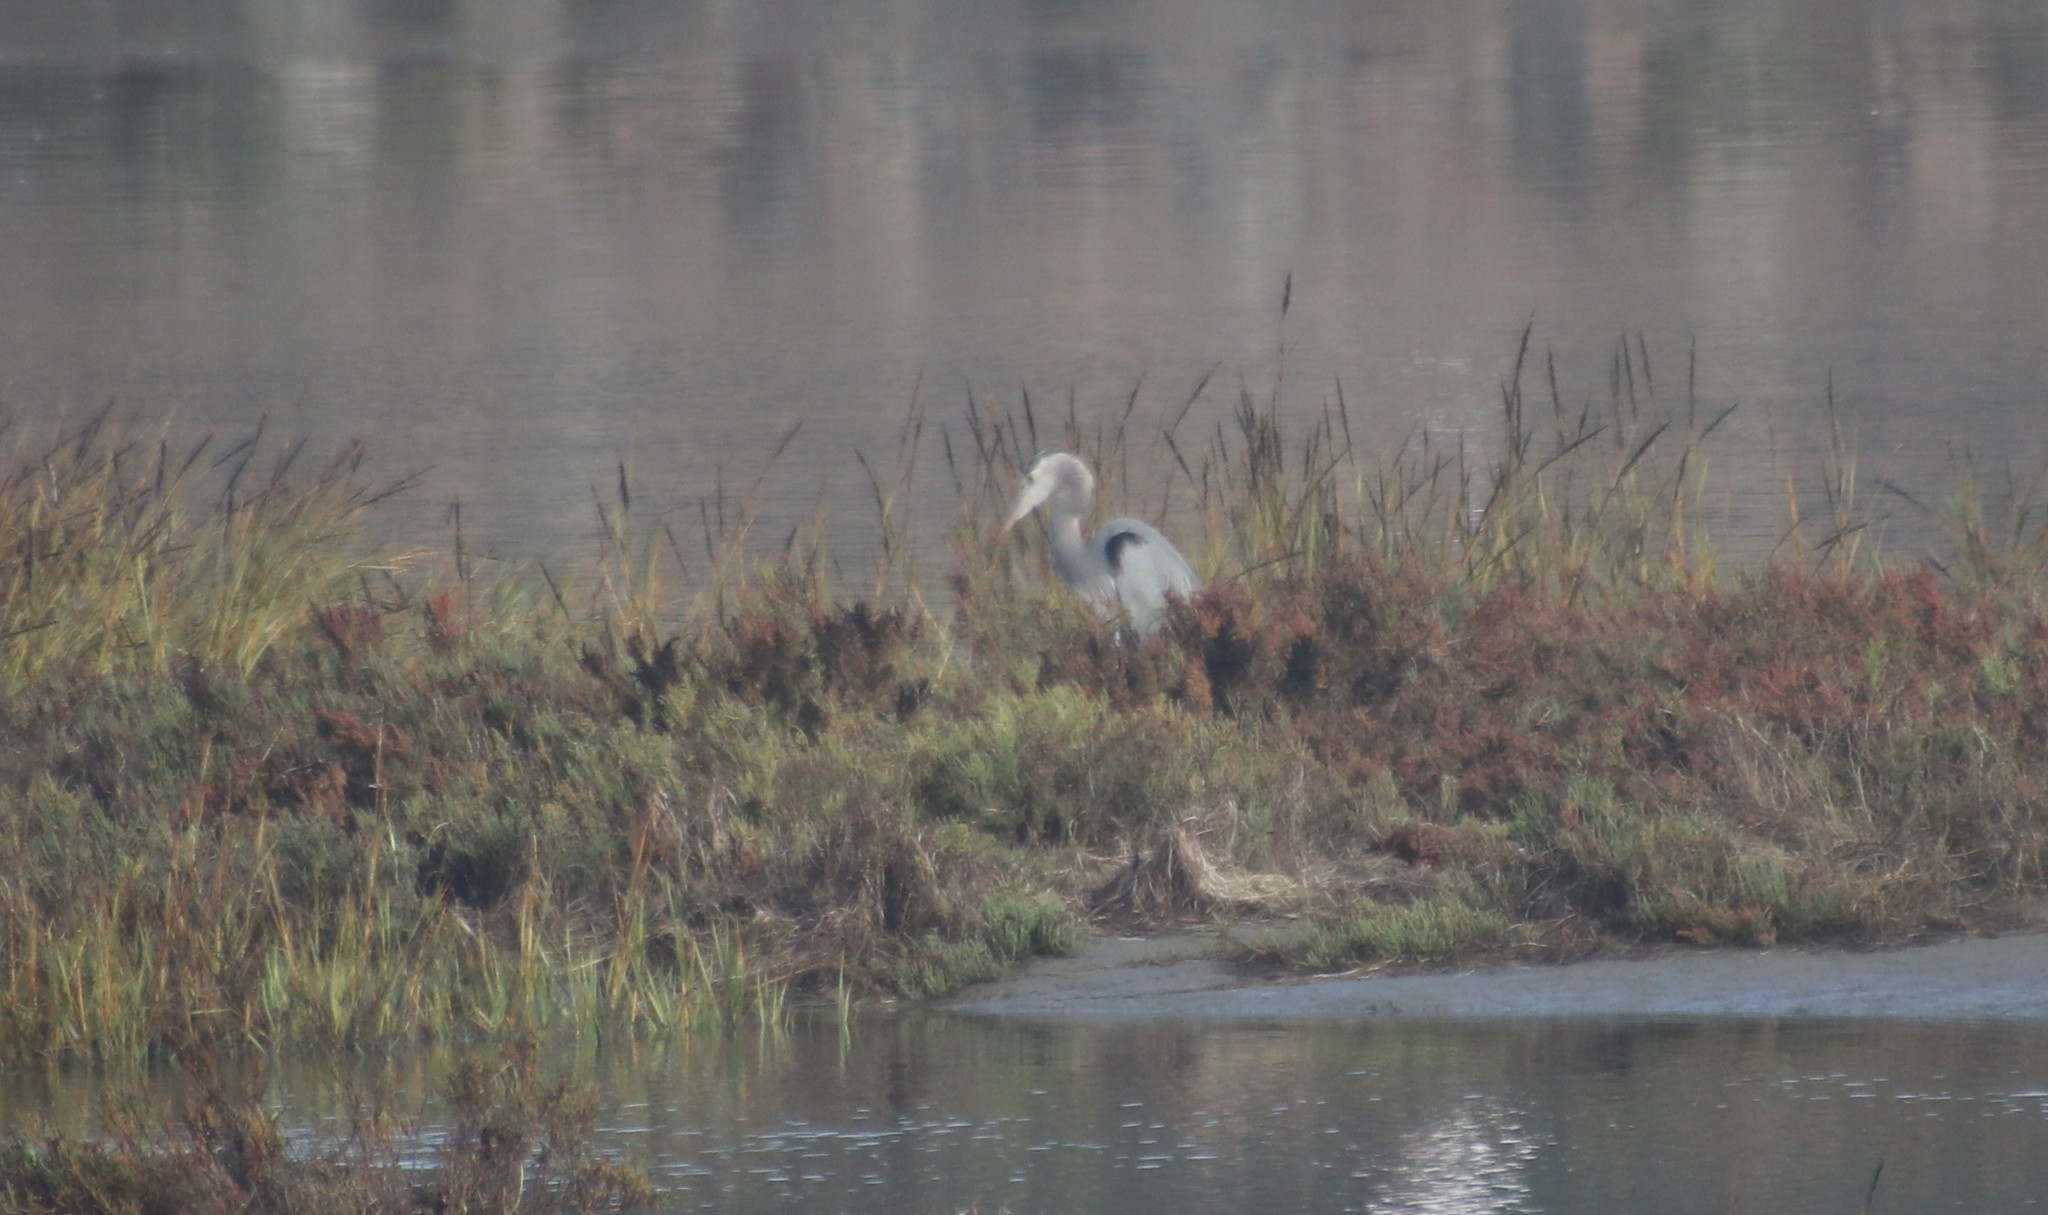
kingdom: Animalia
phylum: Chordata
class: Aves
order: Pelecaniformes
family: Ardeidae
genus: Ardea
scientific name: Ardea herodias
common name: Great blue heron
